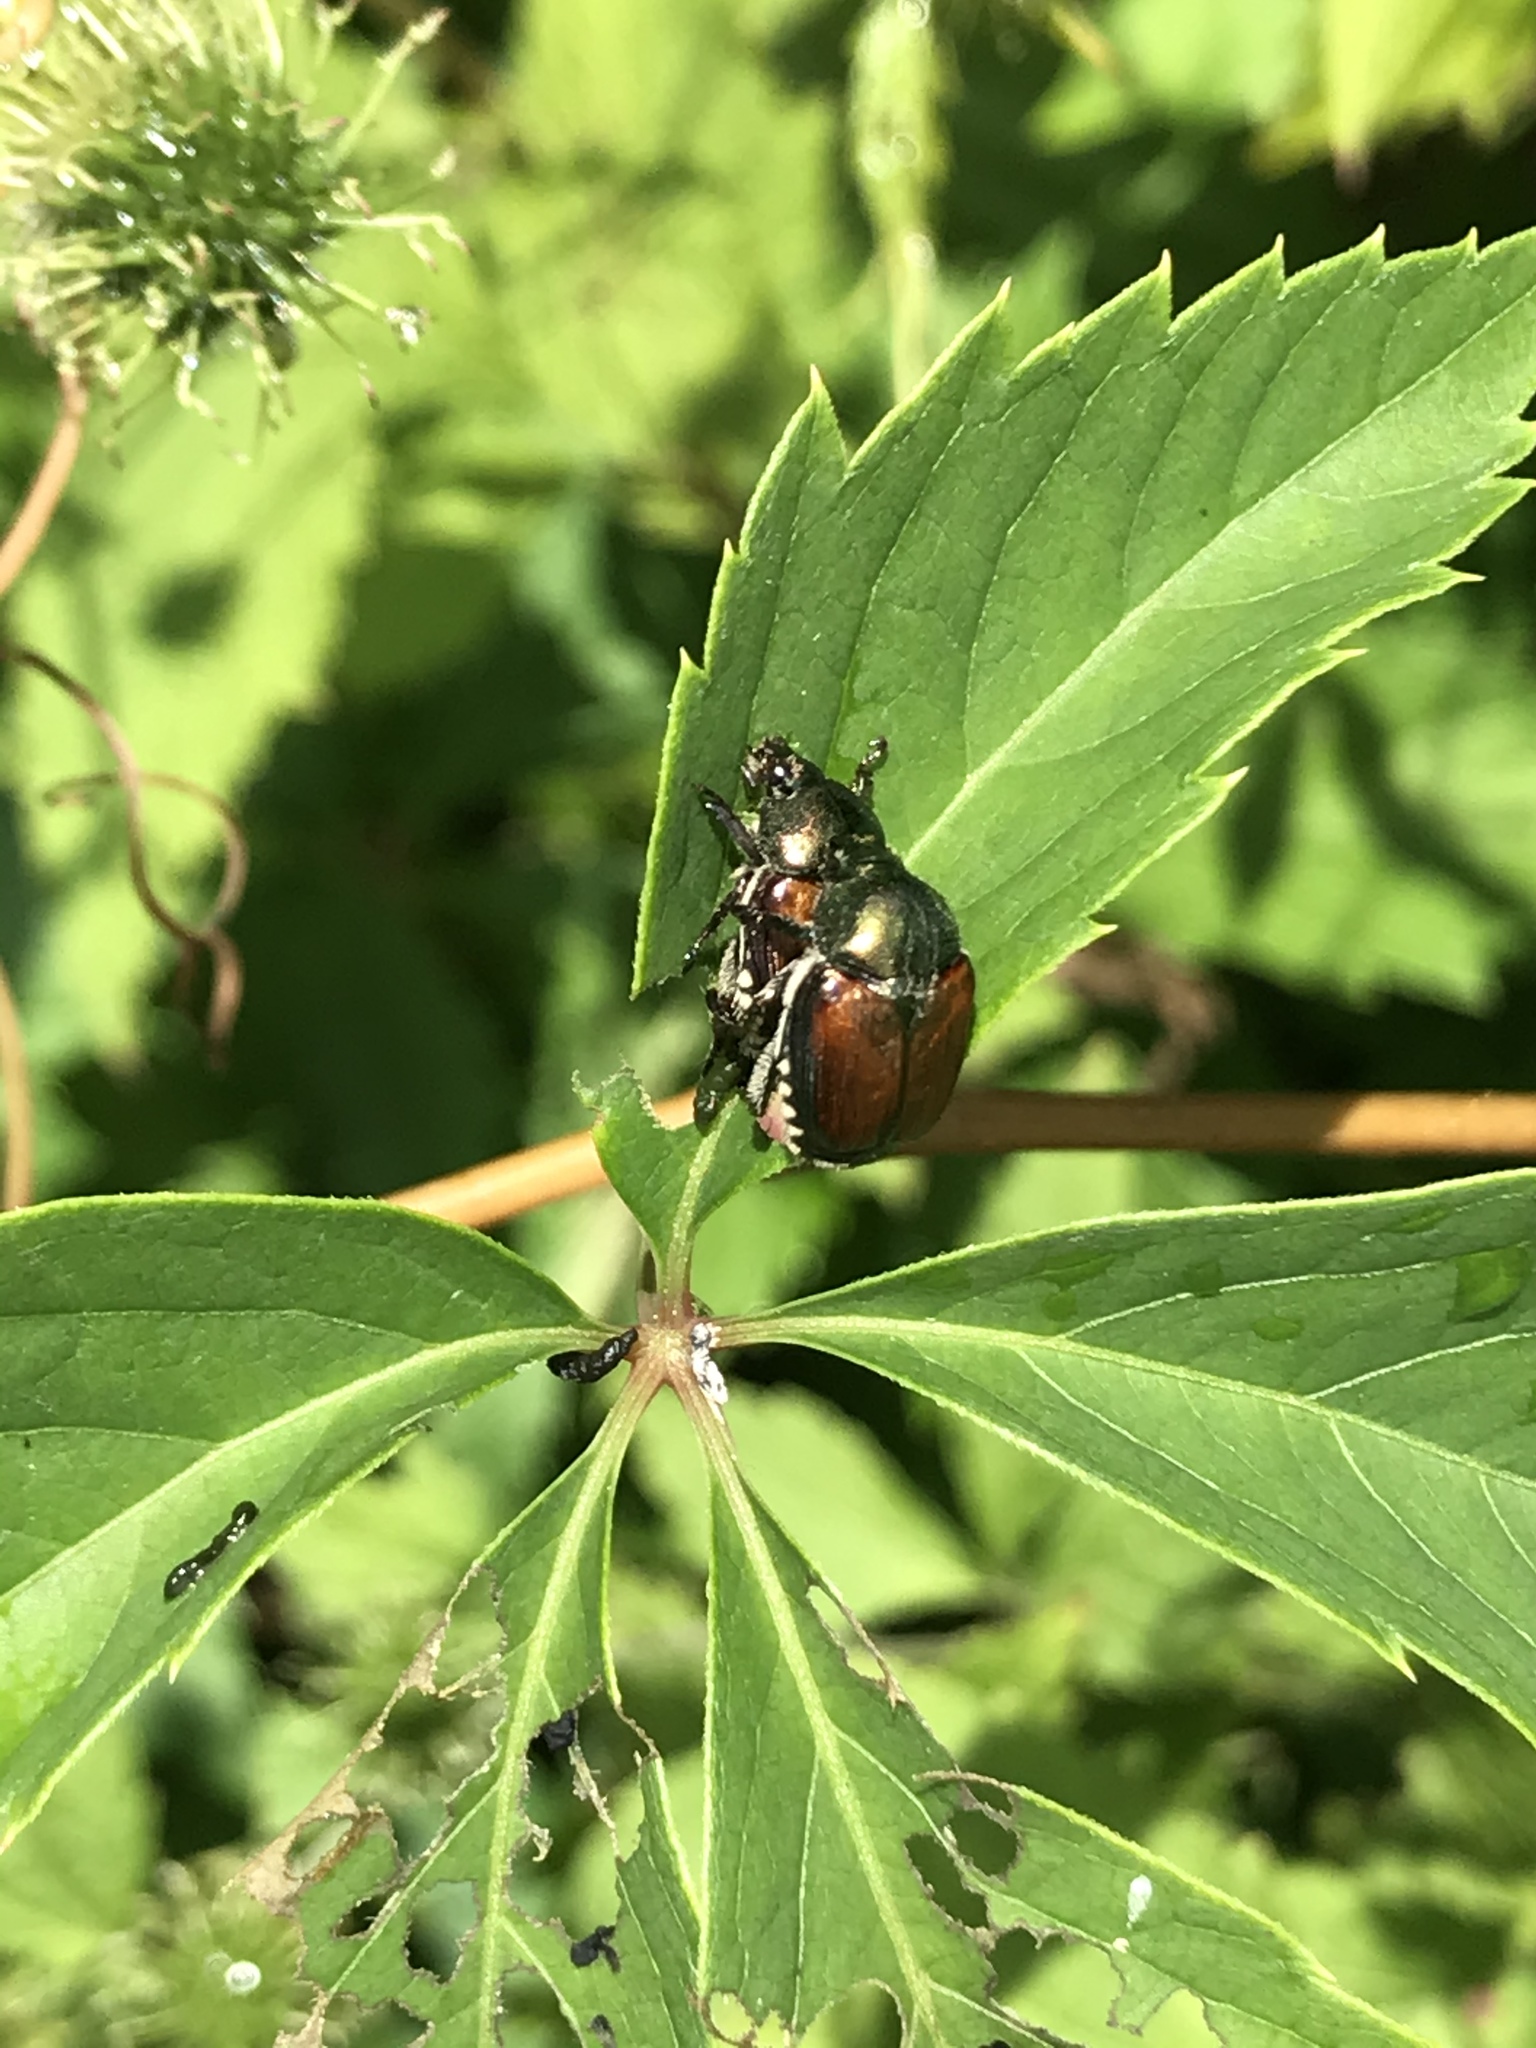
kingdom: Animalia
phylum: Arthropoda
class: Insecta
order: Coleoptera
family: Scarabaeidae
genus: Popillia
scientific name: Popillia japonica
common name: Japanese beetle
